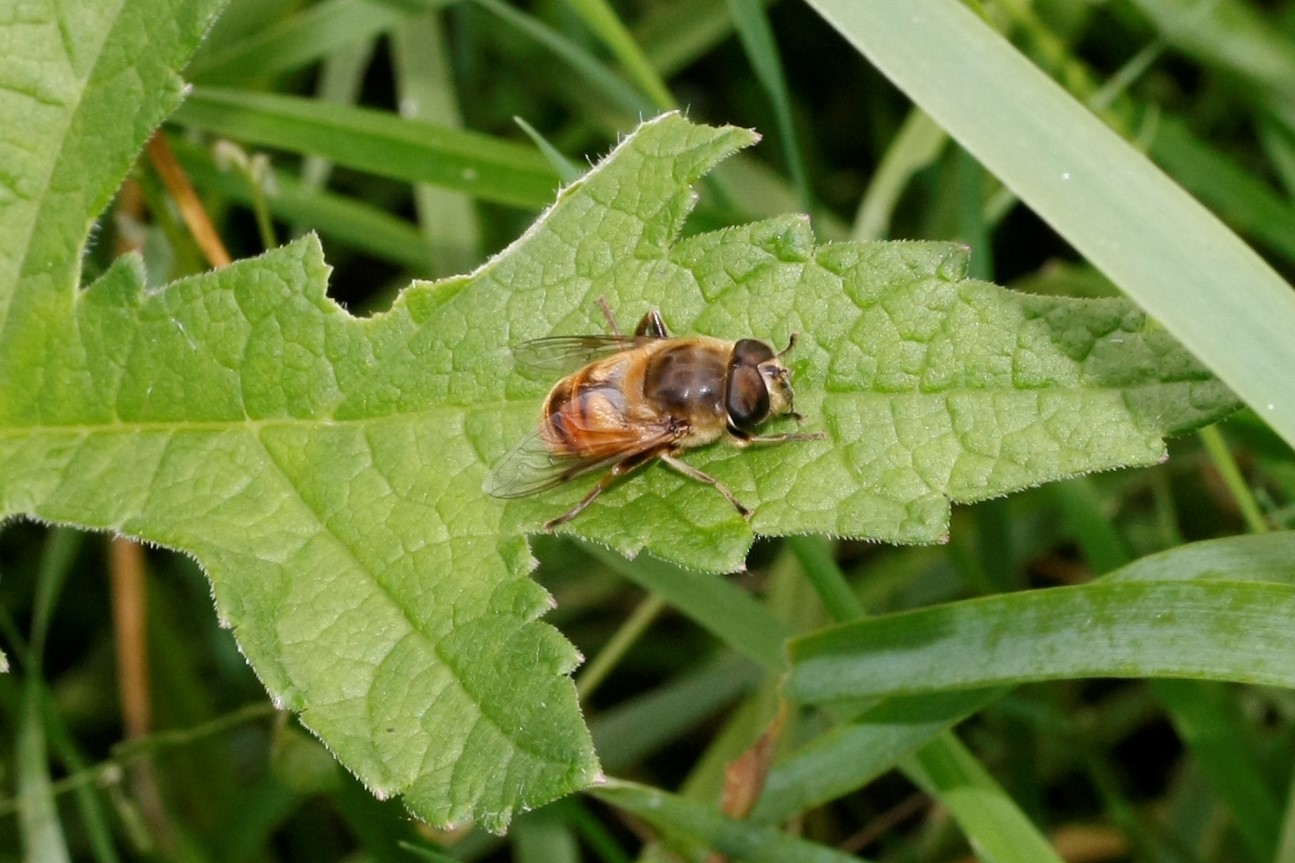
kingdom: Animalia
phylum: Arthropoda
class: Insecta
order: Diptera
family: Syrphidae
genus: Eristalis
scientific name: Eristalis tenax
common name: Drone fly
